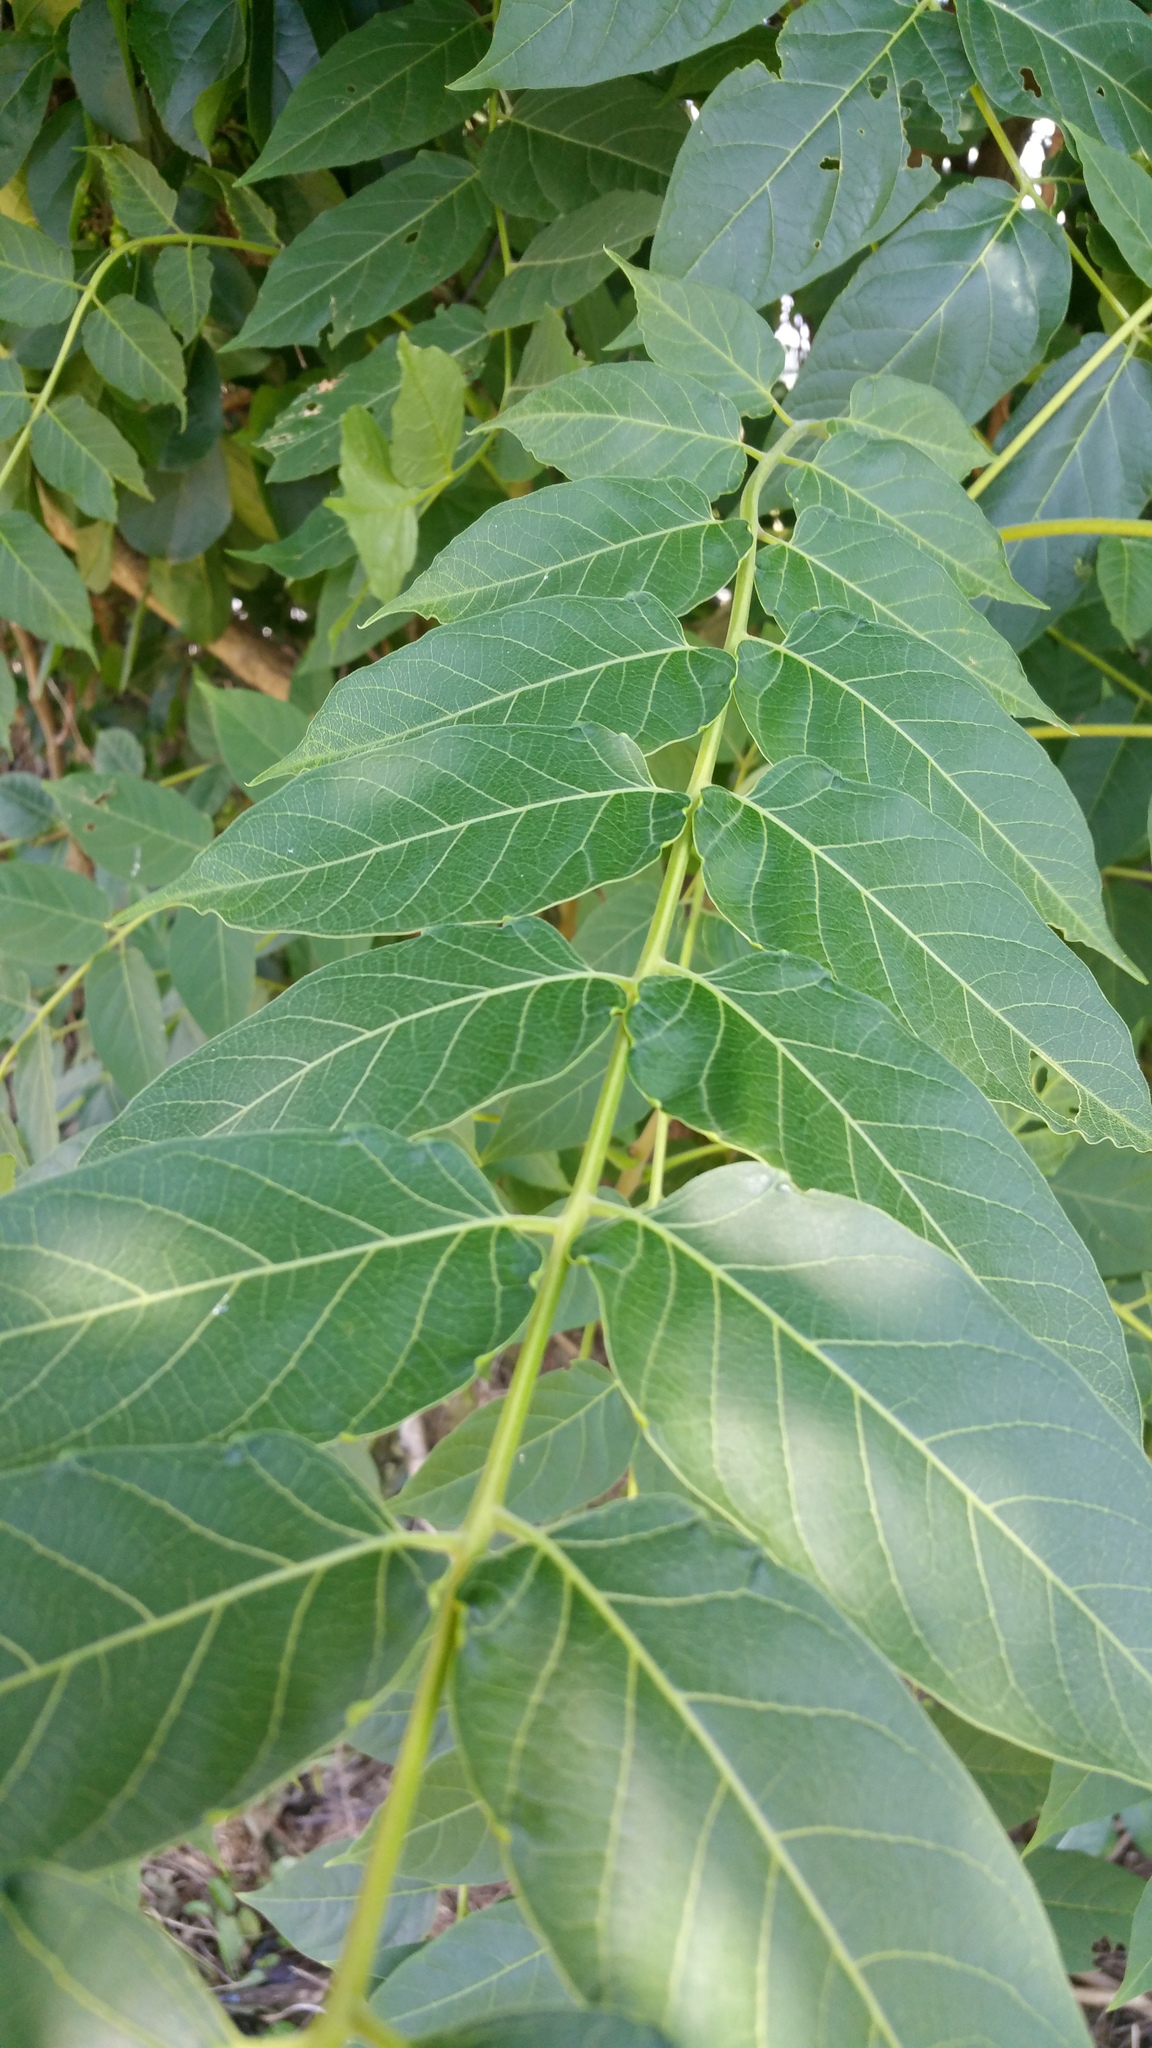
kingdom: Plantae
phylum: Tracheophyta
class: Magnoliopsida
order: Sapindales
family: Simaroubaceae
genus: Ailanthus
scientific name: Ailanthus altissima
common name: Tree-of-heaven
